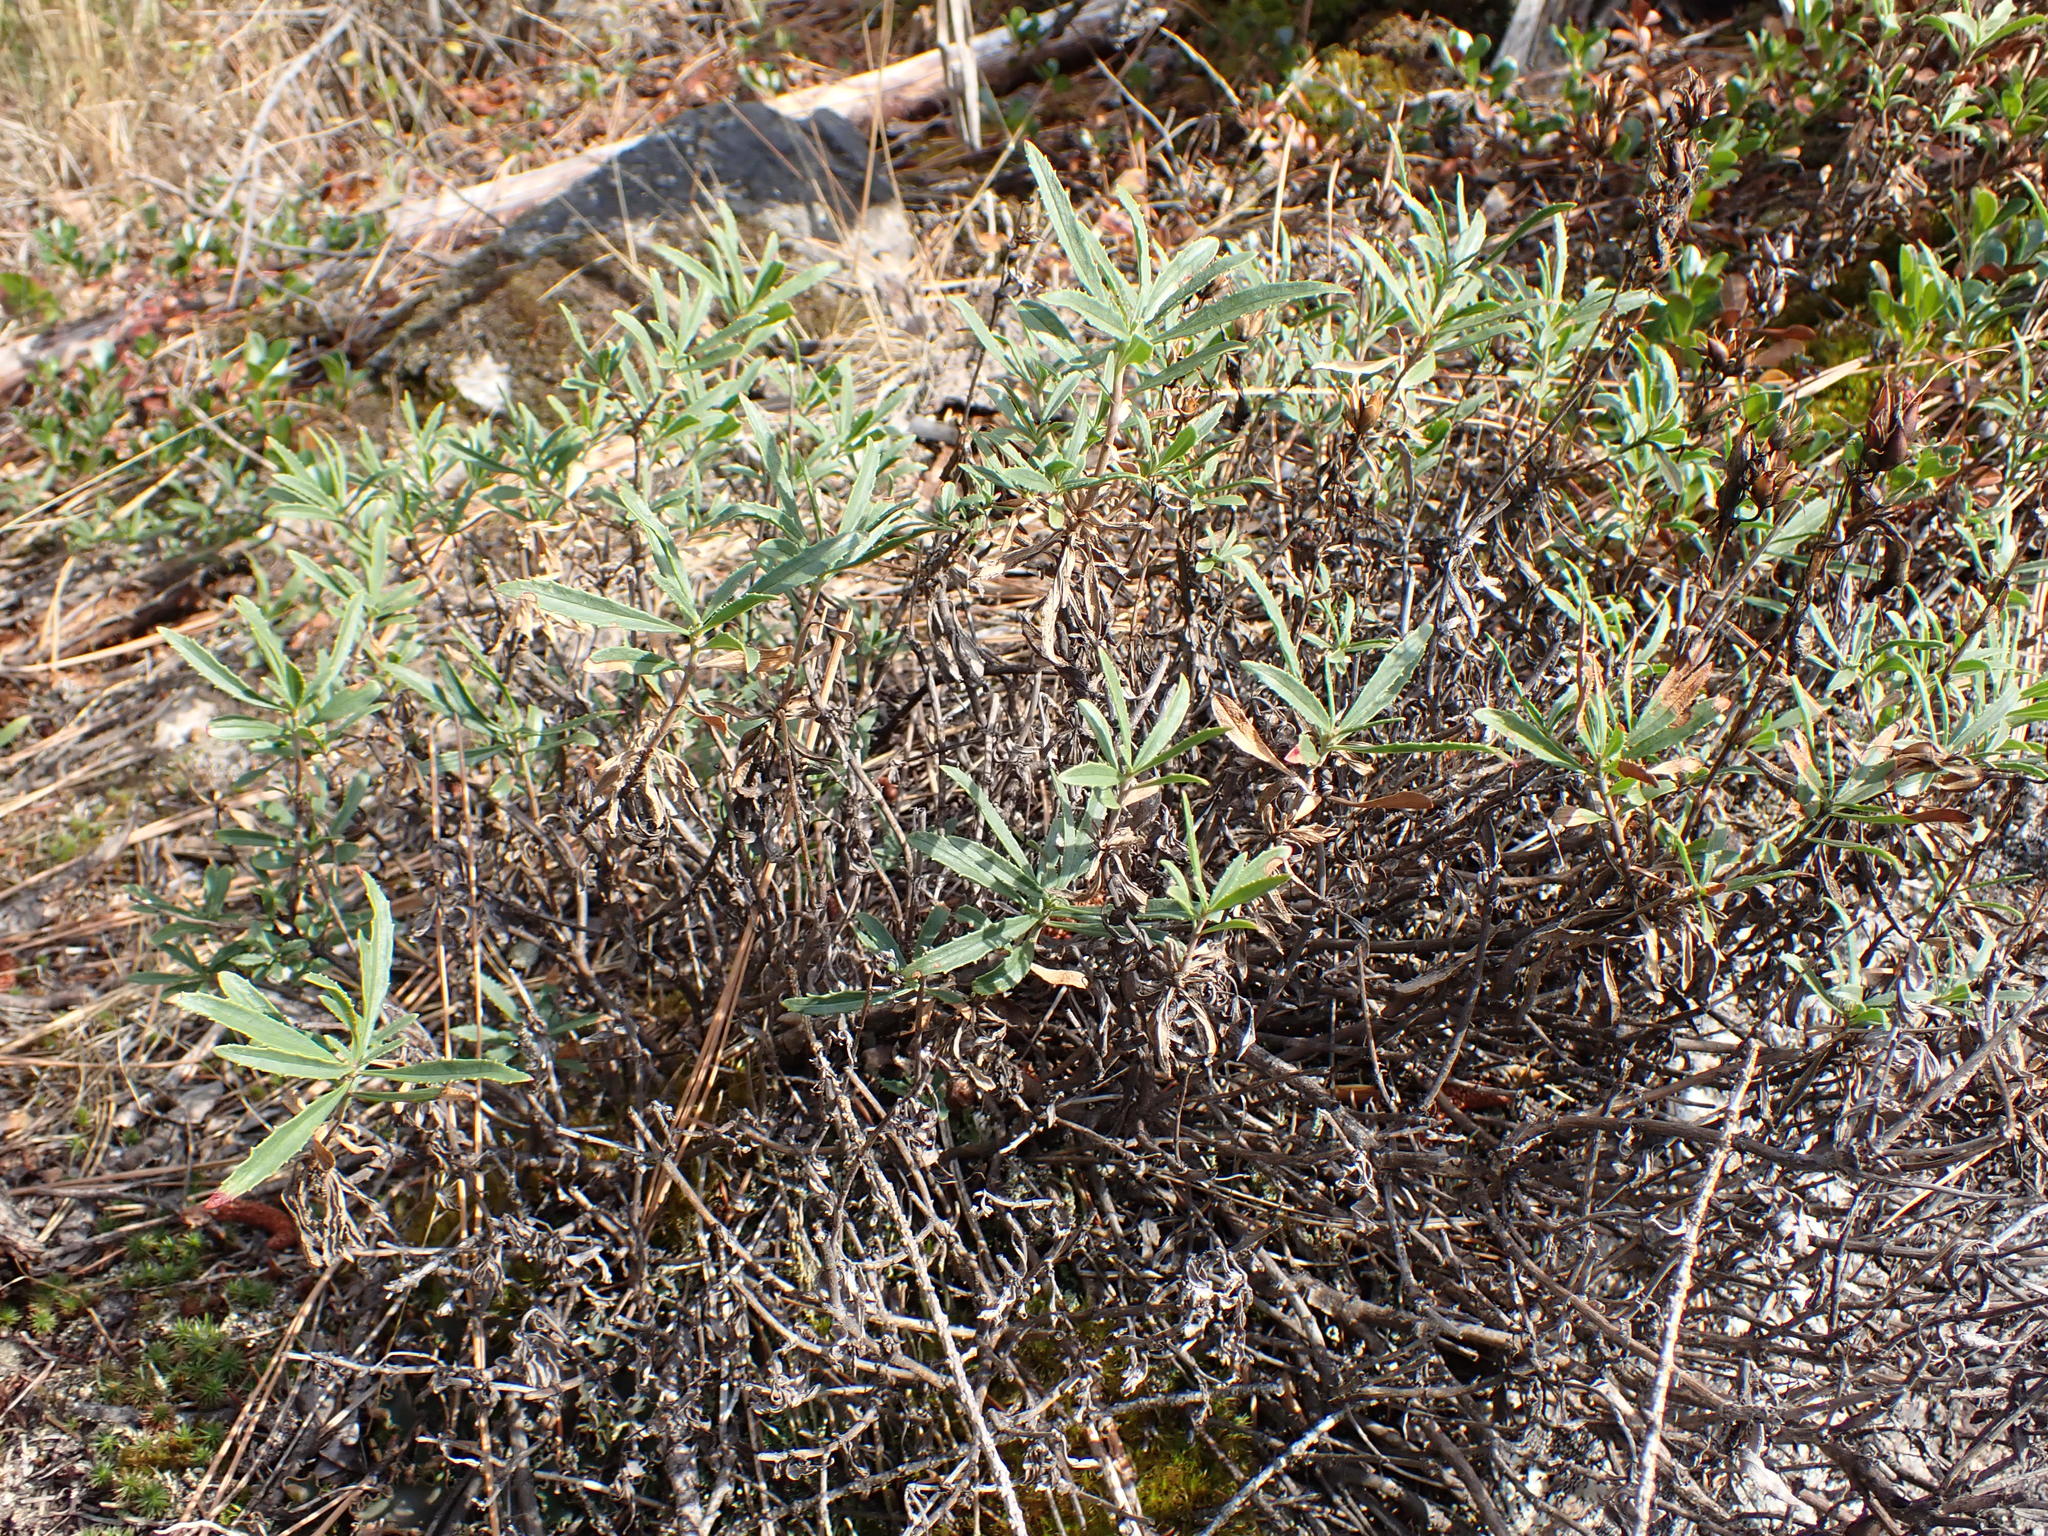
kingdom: Plantae
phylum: Tracheophyta
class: Magnoliopsida
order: Lamiales
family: Plantaginaceae
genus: Penstemon
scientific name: Penstemon fruticosus
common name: Bush penstemon
